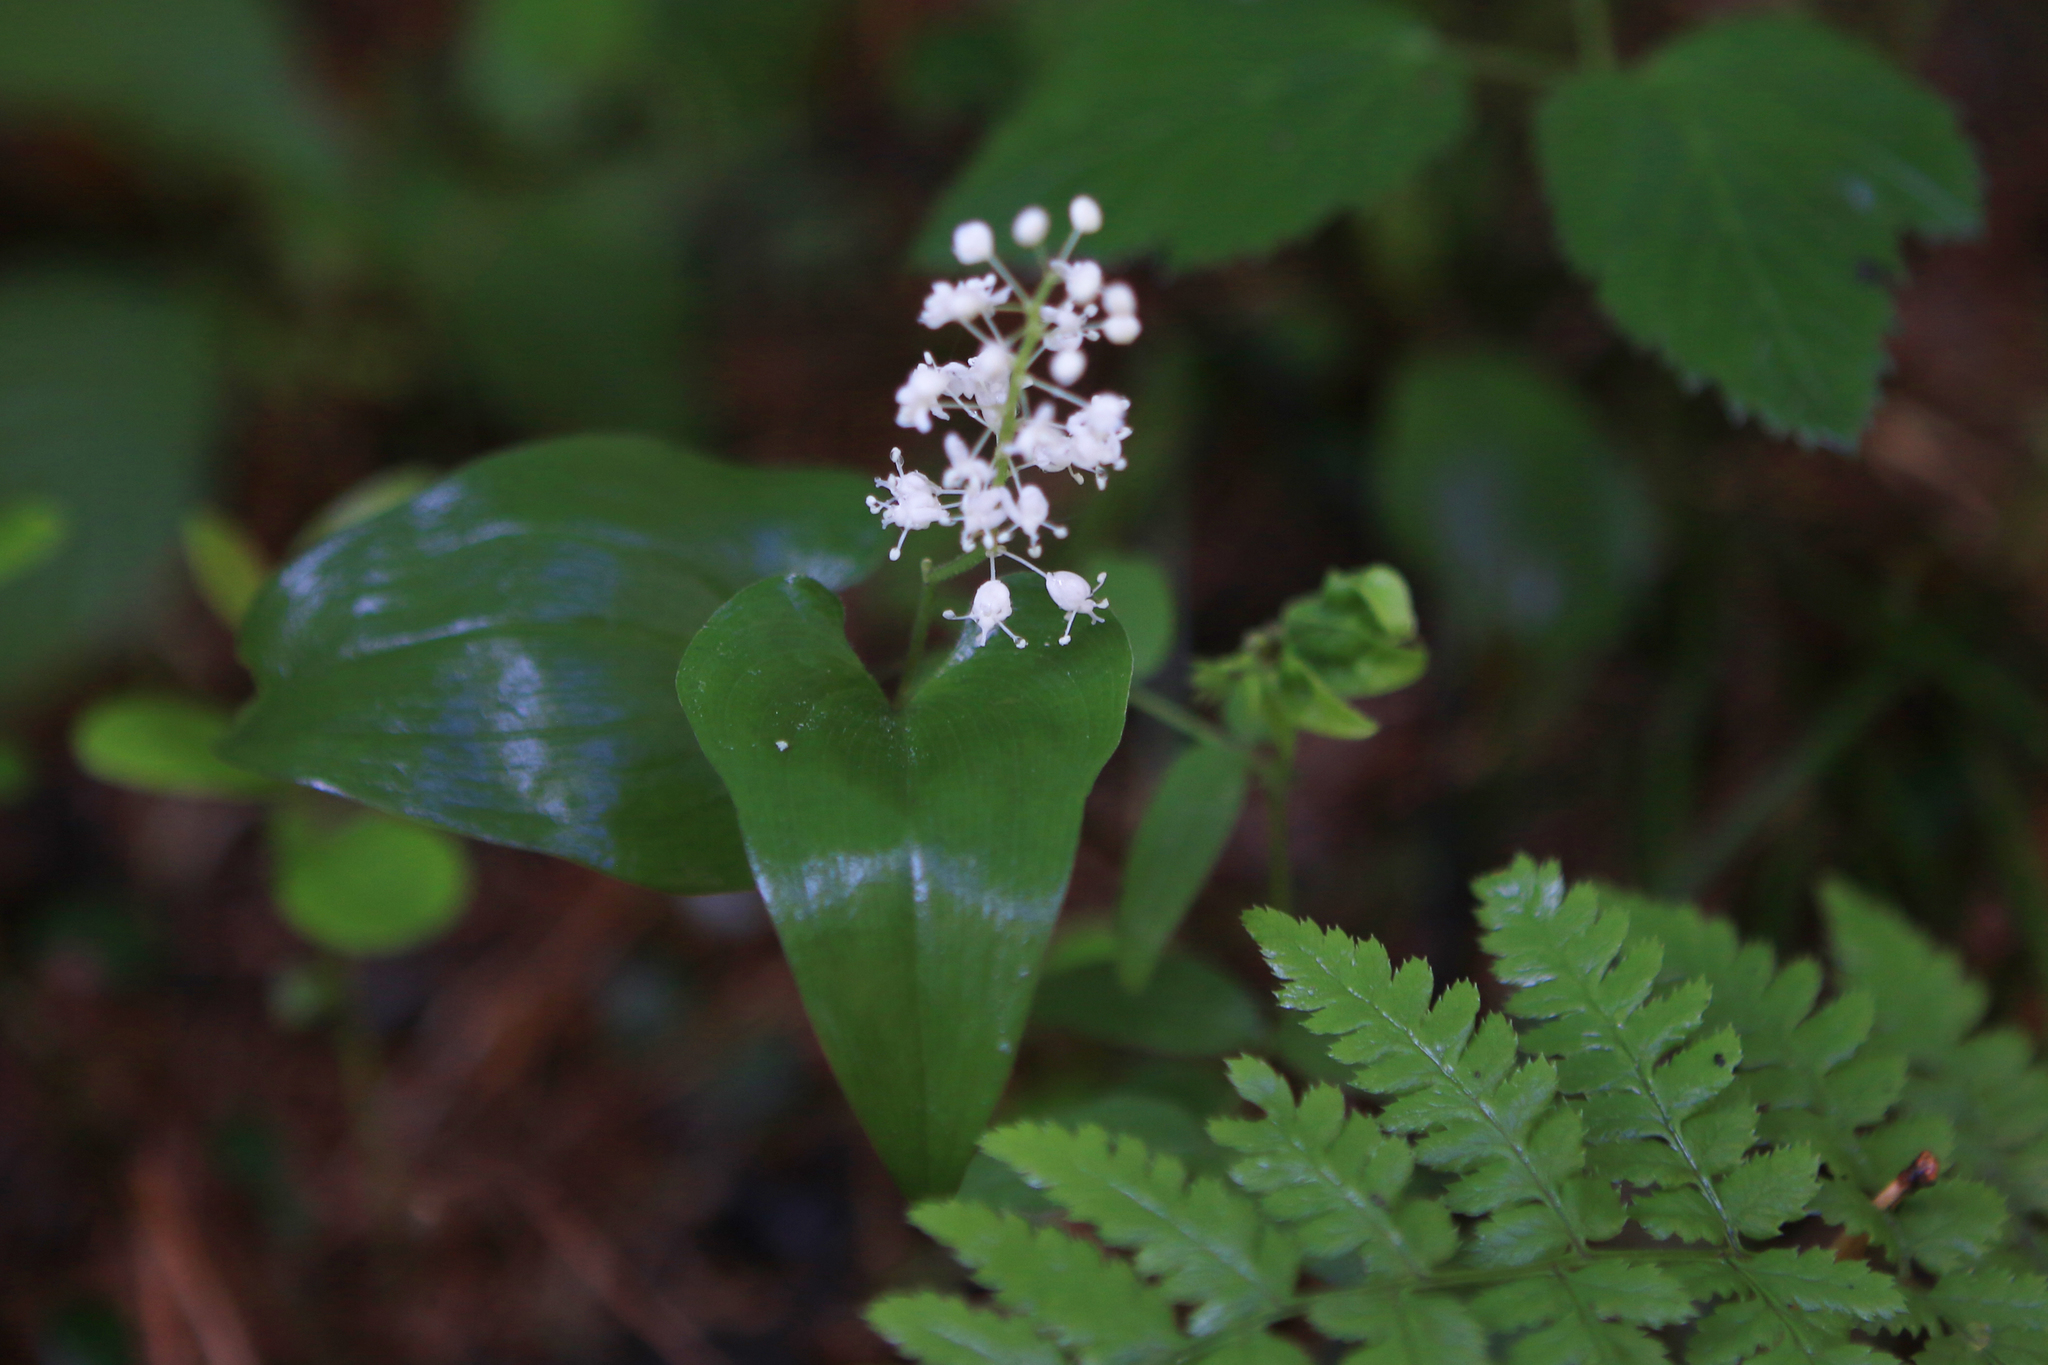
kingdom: Plantae
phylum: Tracheophyta
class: Liliopsida
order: Asparagales
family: Asparagaceae
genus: Maianthemum
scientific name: Maianthemum bifolium
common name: May lily
